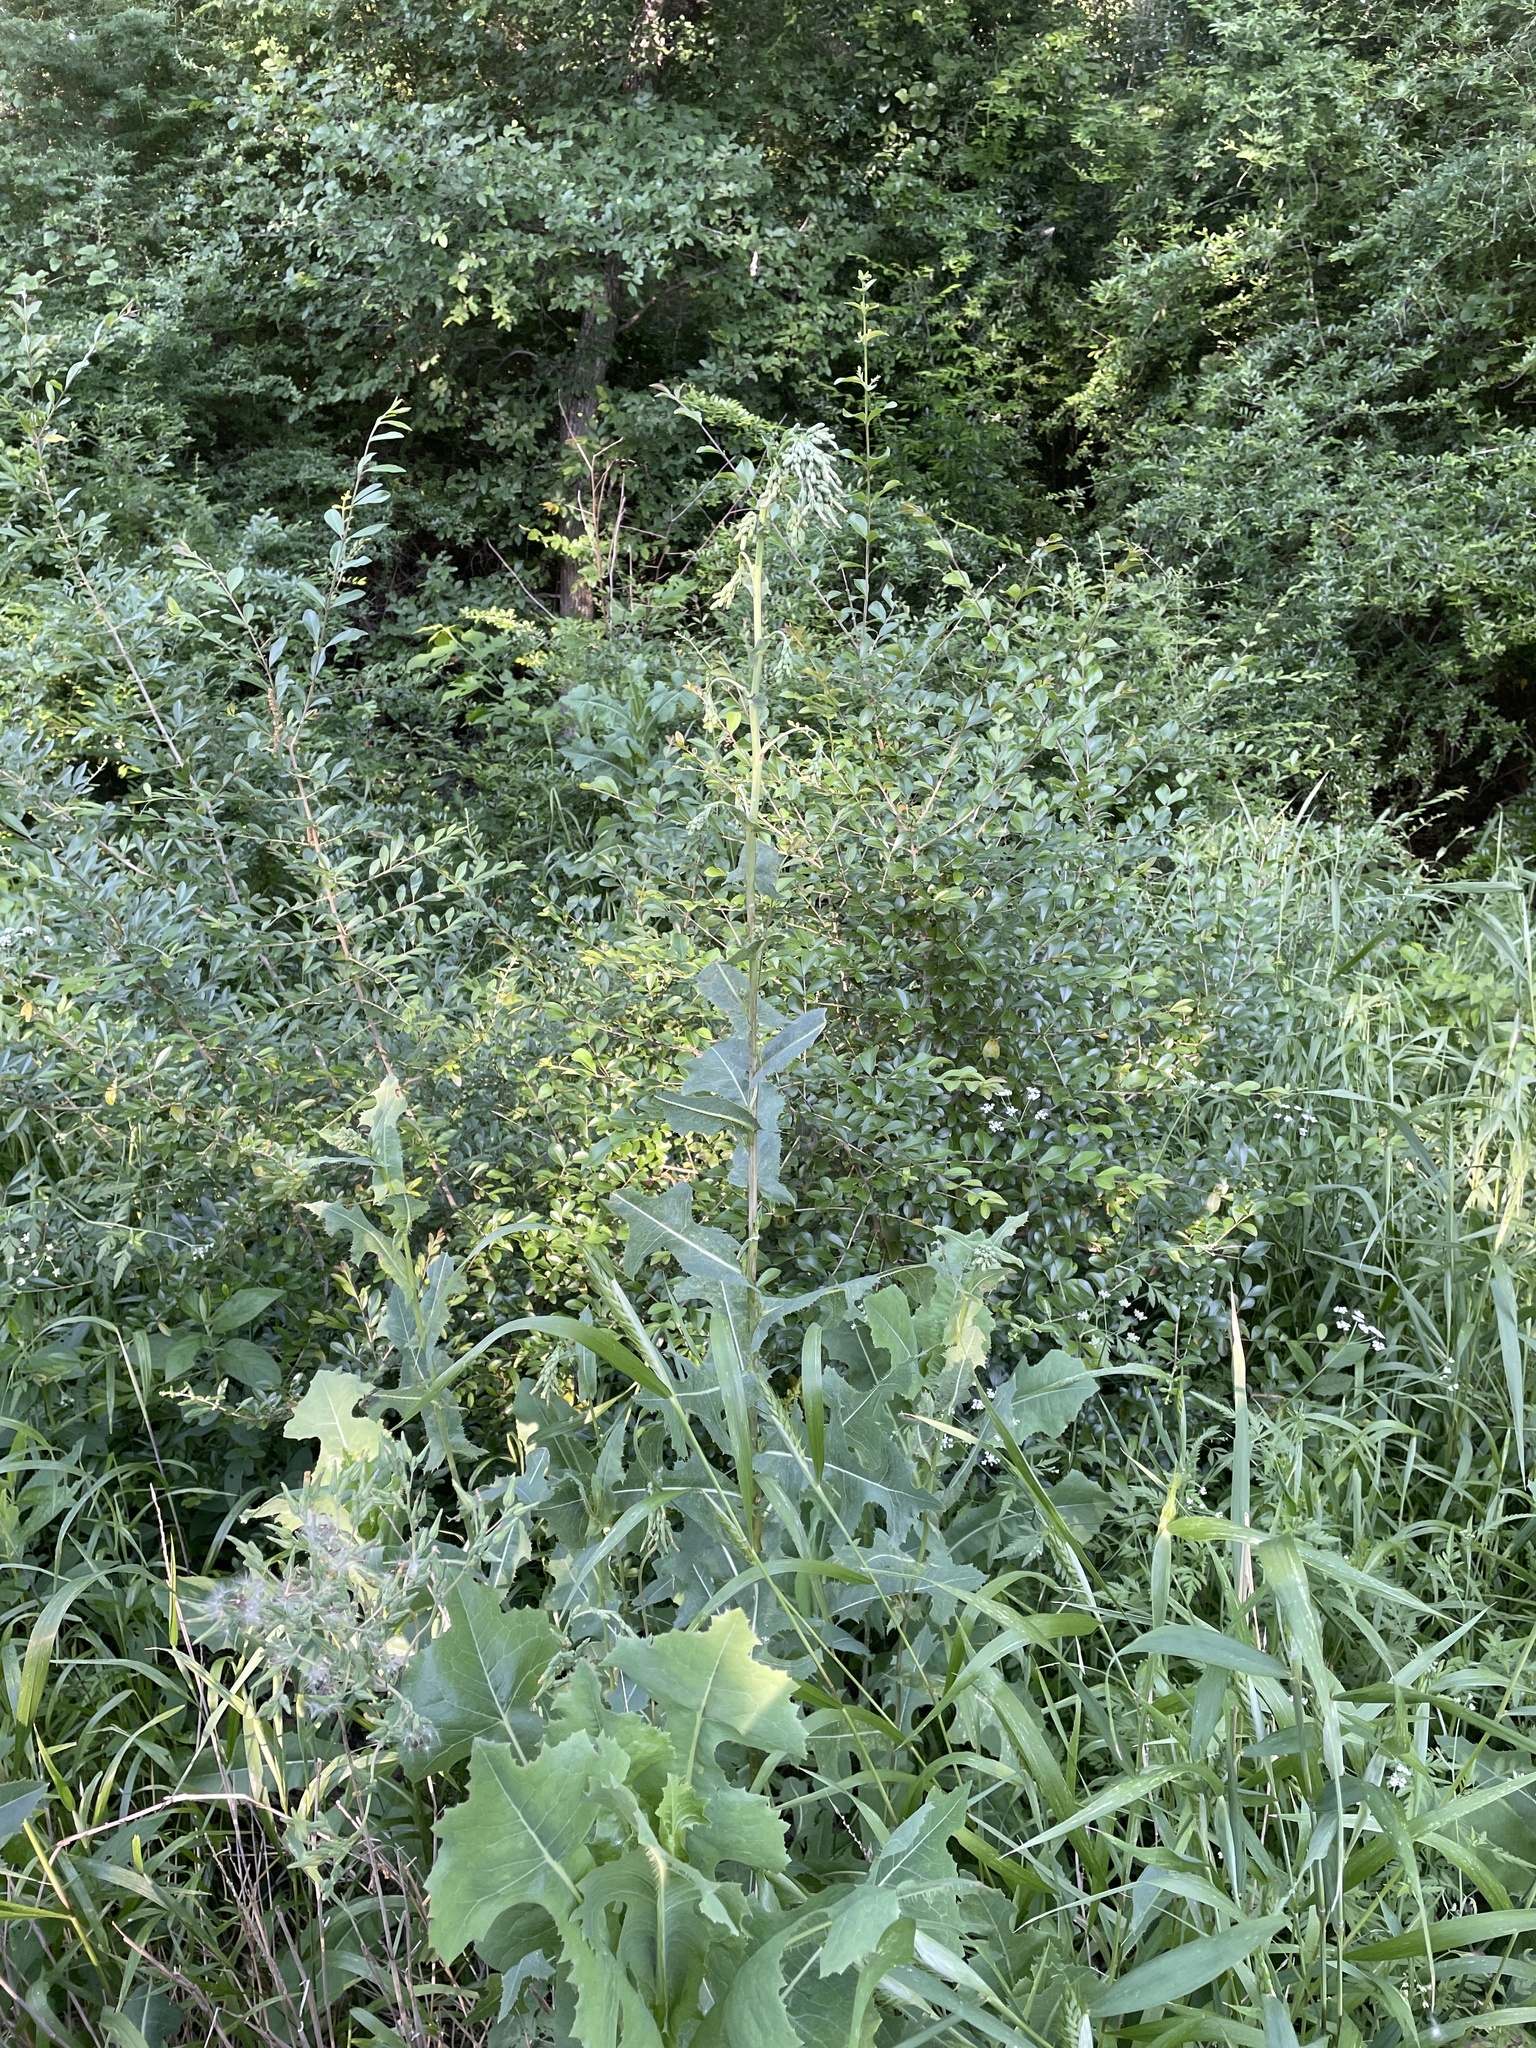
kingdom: Plantae
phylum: Tracheophyta
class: Magnoliopsida
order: Asterales
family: Asteraceae
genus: Lactuca
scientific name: Lactuca serriola
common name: Prickly lettuce
